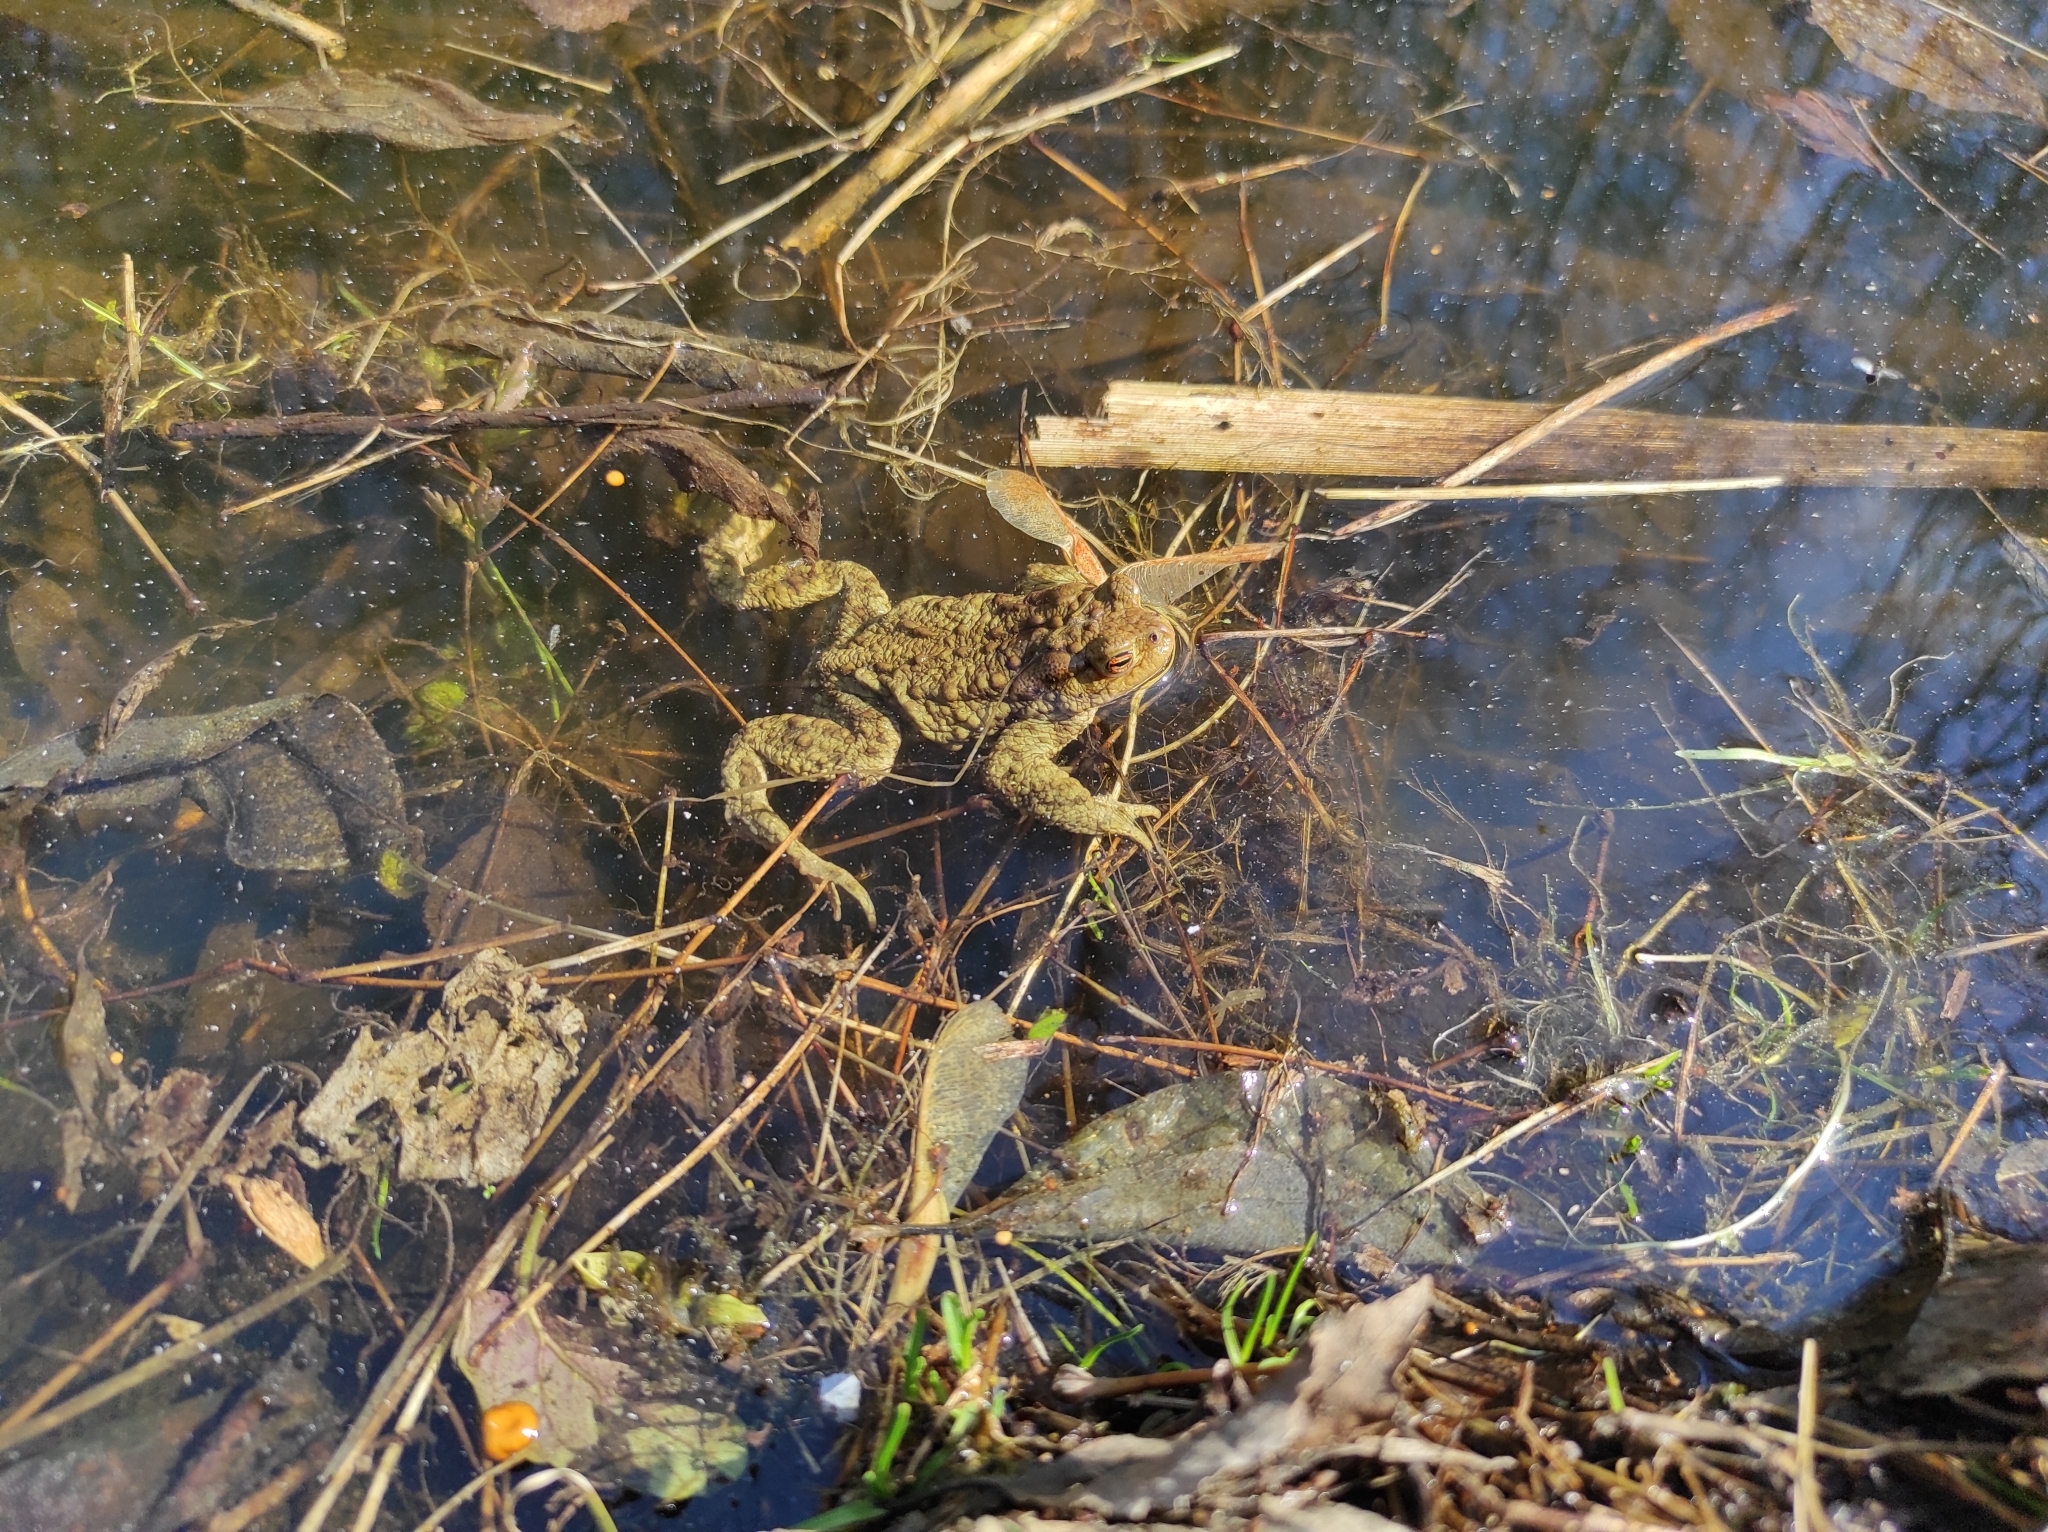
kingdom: Animalia
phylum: Chordata
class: Amphibia
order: Anura
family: Bufonidae
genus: Bufo
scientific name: Bufo bufo
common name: Common toad
